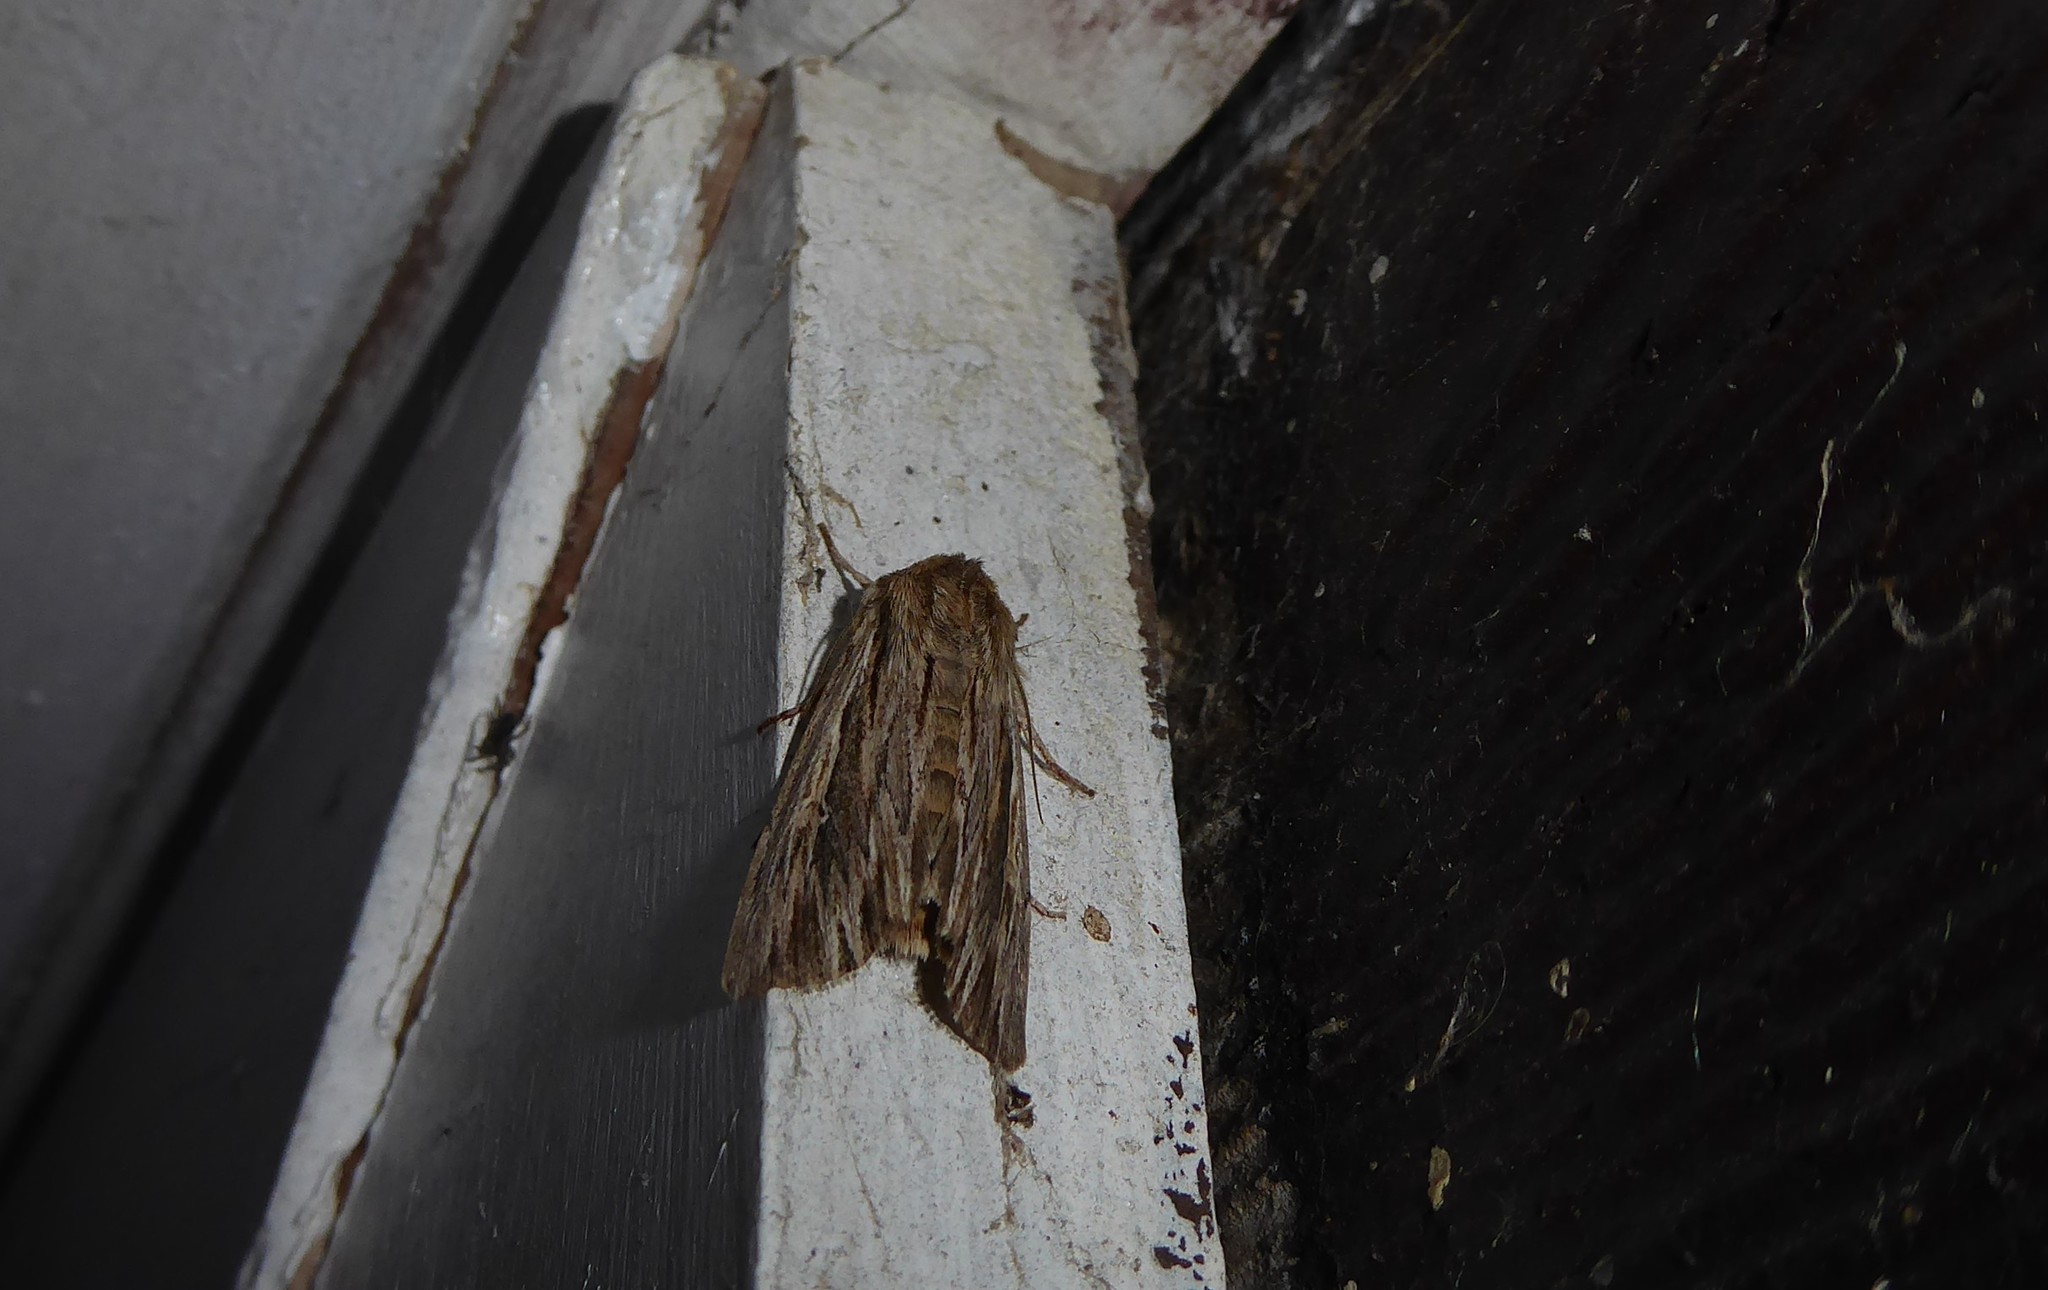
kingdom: Animalia
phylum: Arthropoda
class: Insecta
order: Lepidoptera
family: Noctuidae
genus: Persectania
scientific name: Persectania aversa
